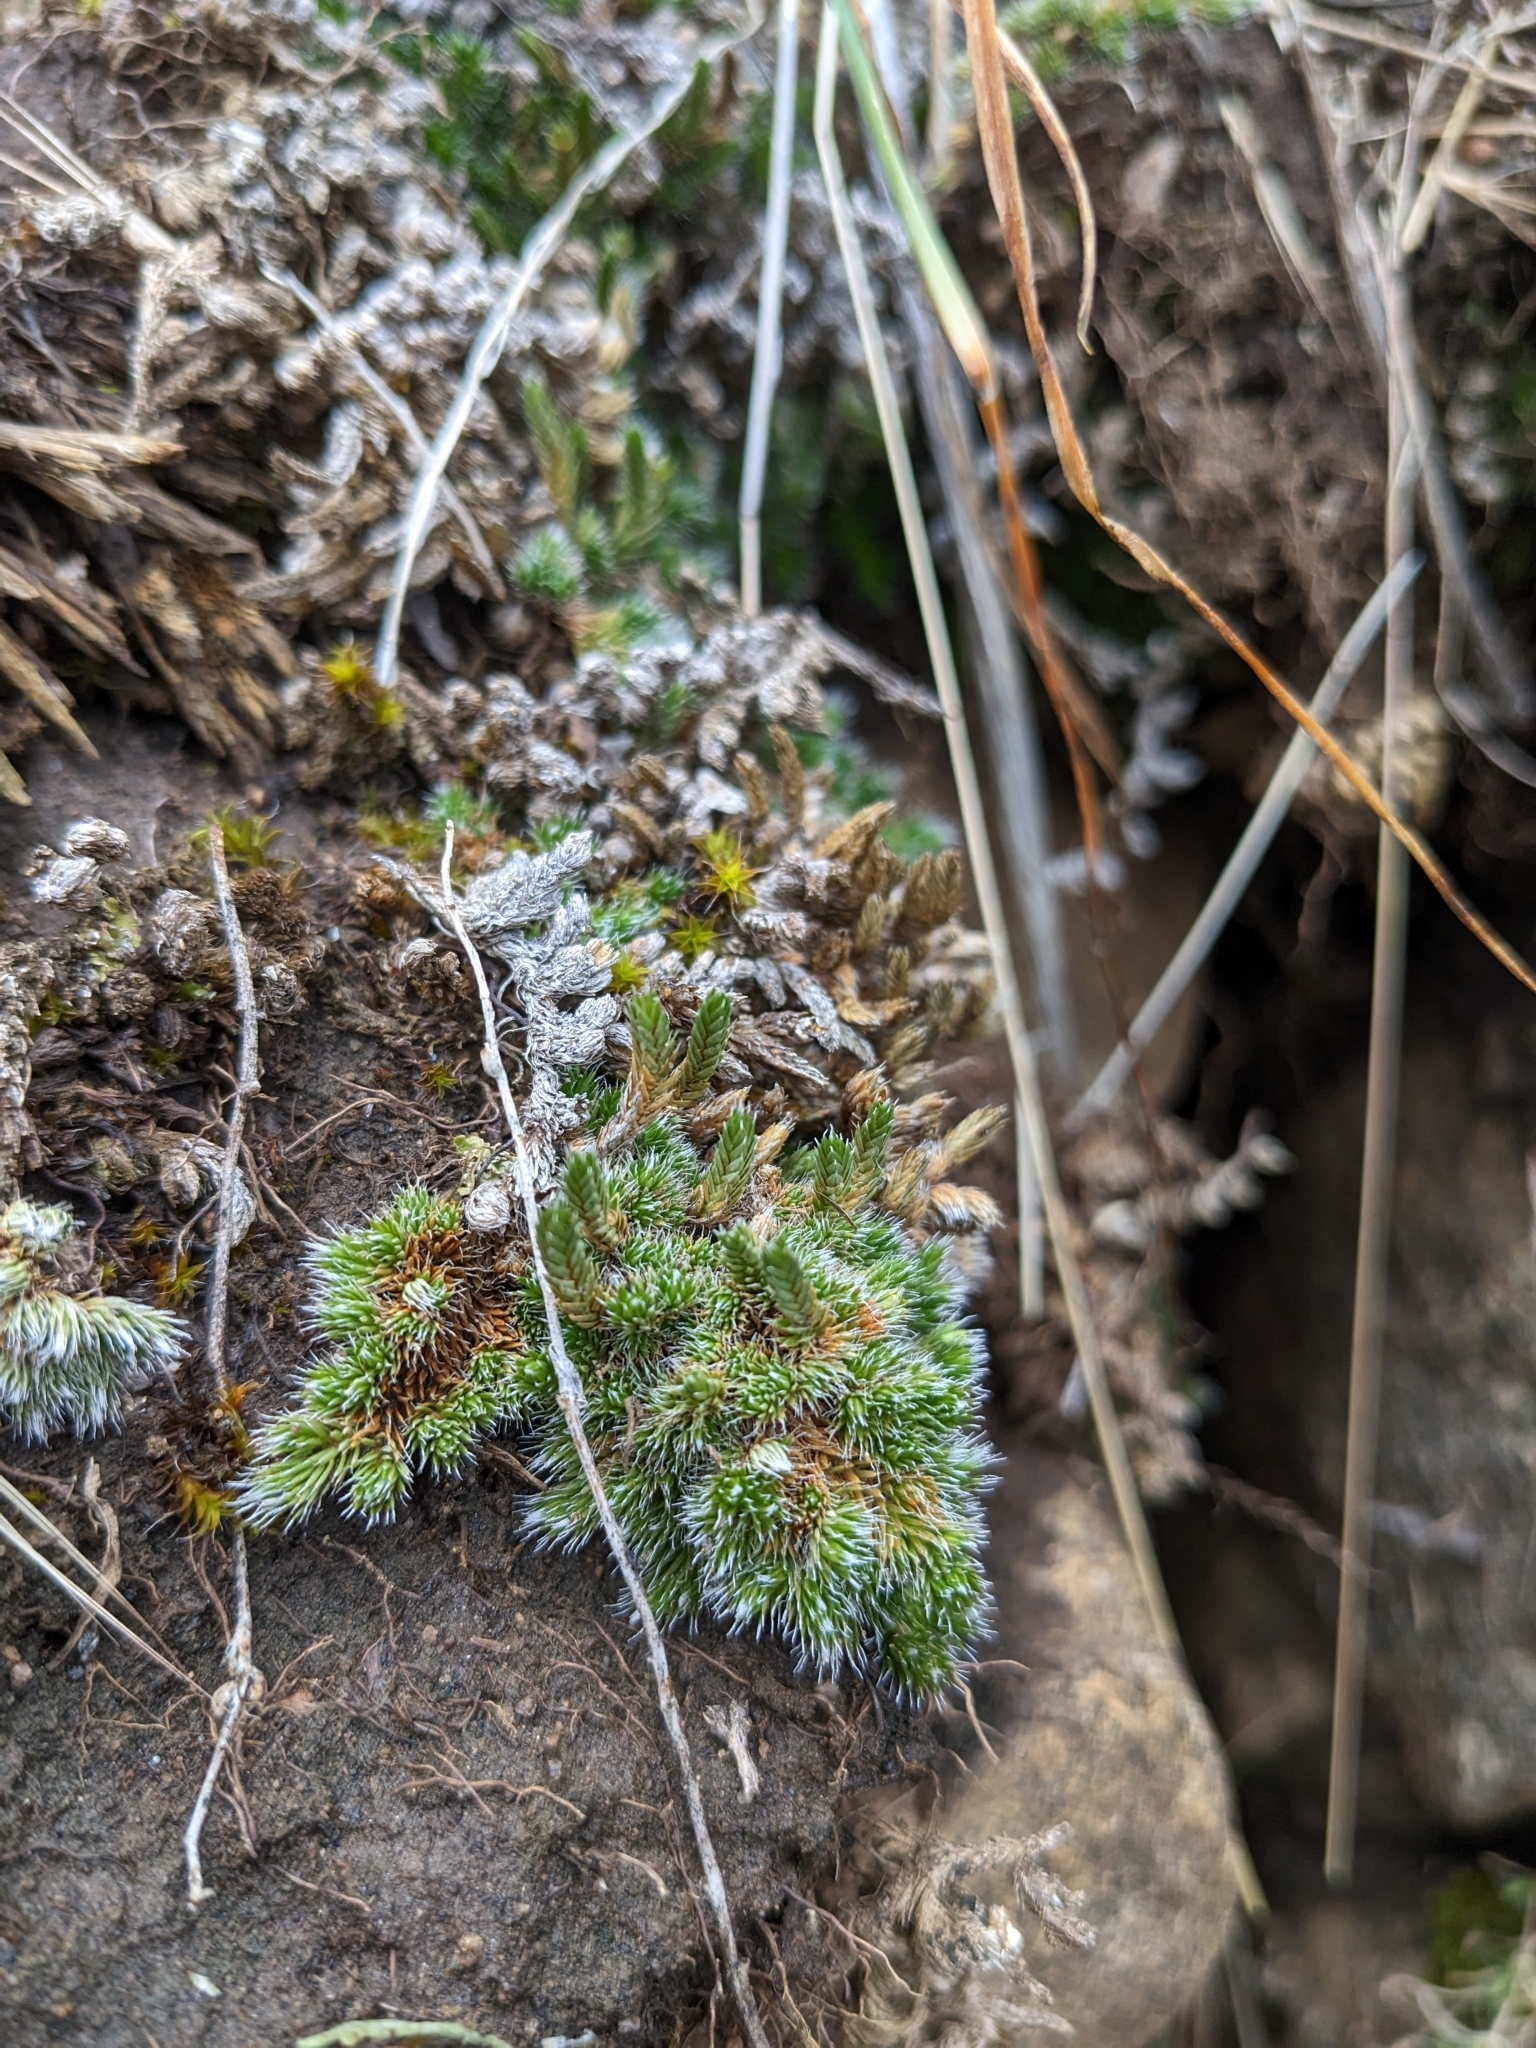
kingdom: Plantae
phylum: Tracheophyta
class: Lycopodiopsida
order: Selaginellales
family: Selaginellaceae
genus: Selaginella
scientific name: Selaginella densa
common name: Mountain spike-moss
